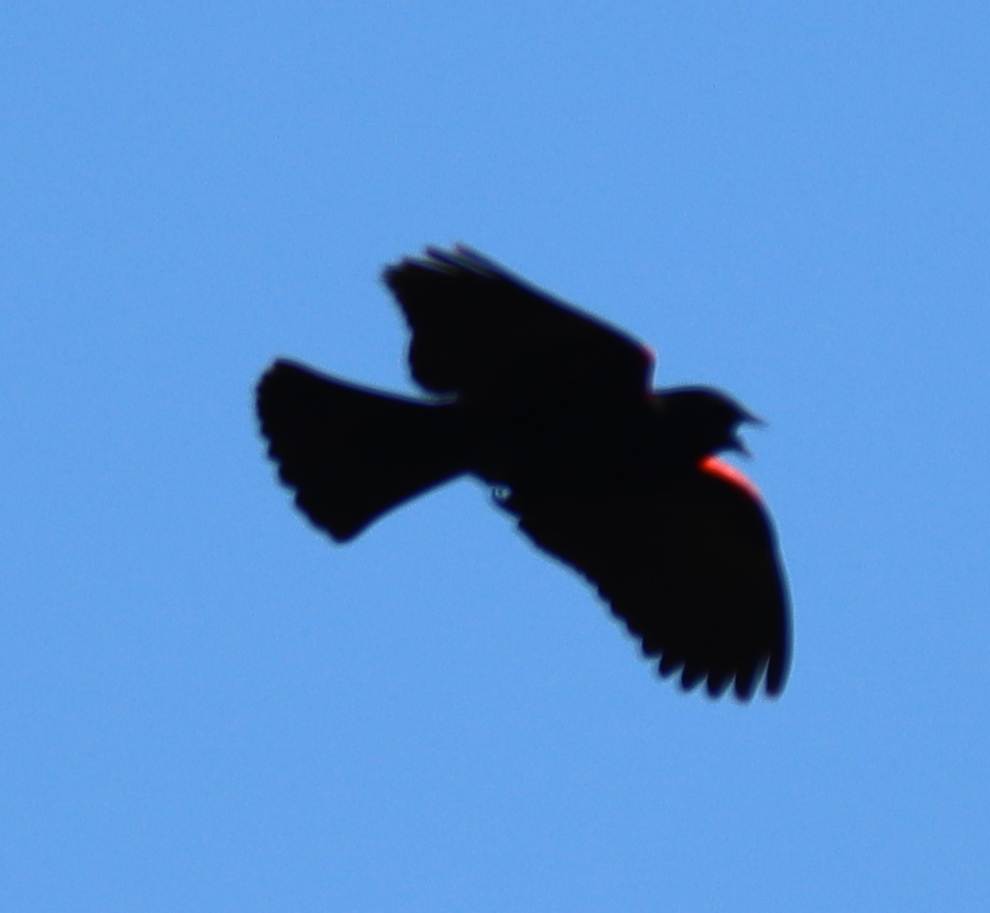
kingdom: Animalia
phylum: Chordata
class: Aves
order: Passeriformes
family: Icteridae
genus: Agelaius
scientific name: Agelaius phoeniceus
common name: Red-winged blackbird
